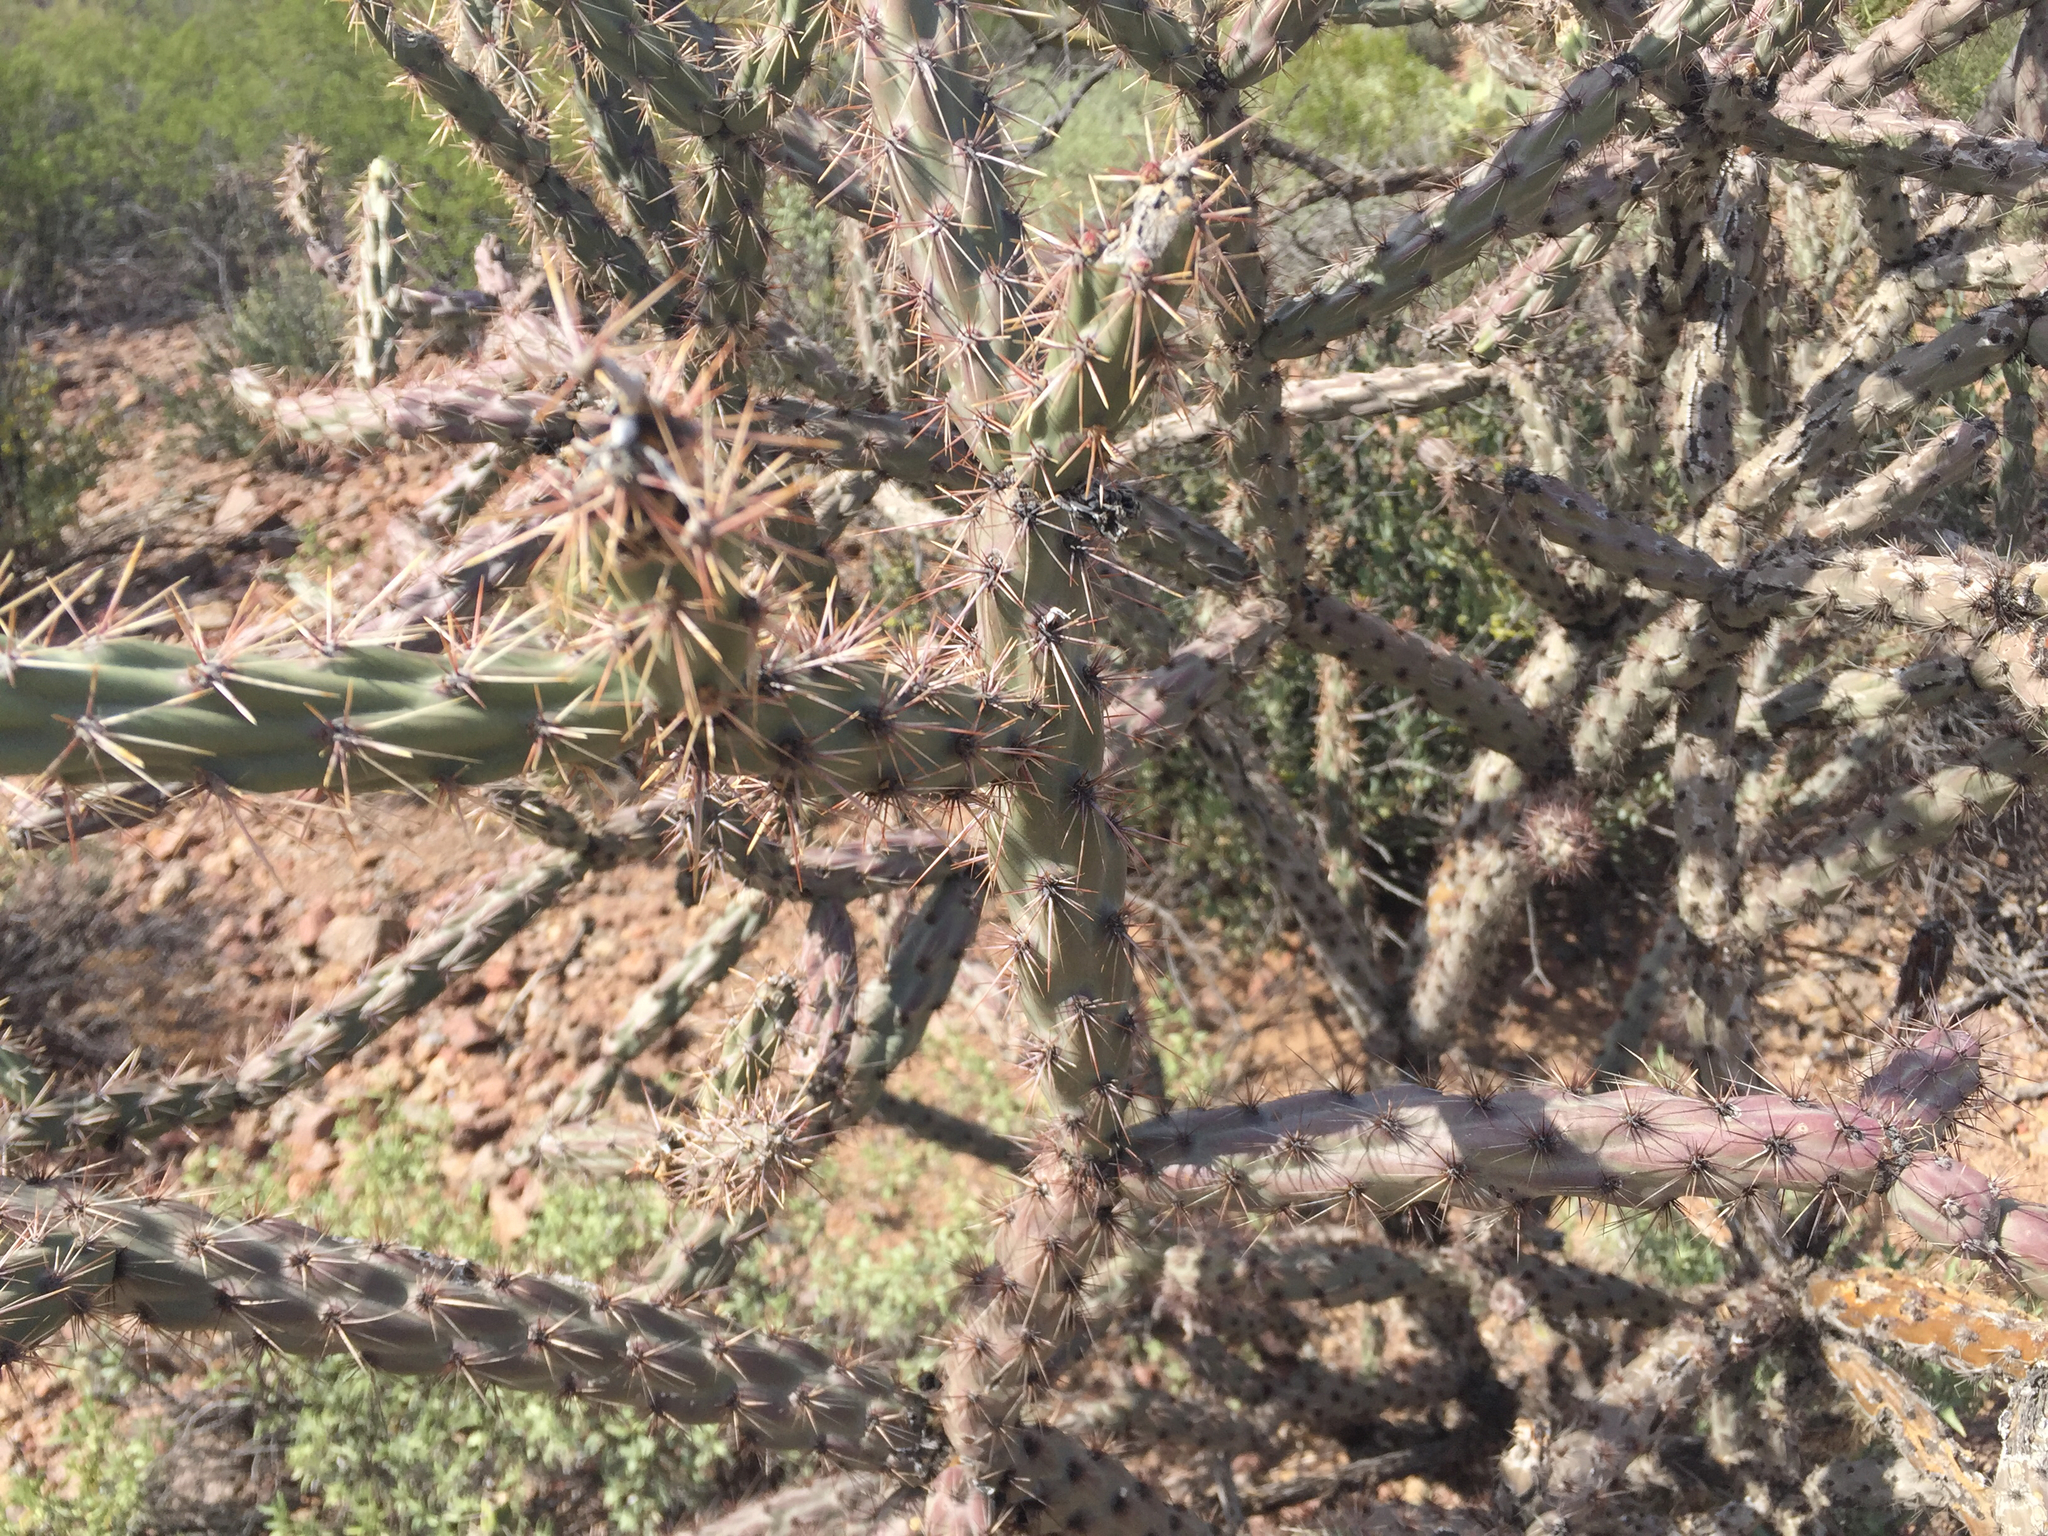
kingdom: Plantae
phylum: Tracheophyta
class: Magnoliopsida
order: Caryophyllales
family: Cactaceae
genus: Cylindropuntia
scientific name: Cylindropuntia acanthocarpa
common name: Buckhorn cholla
